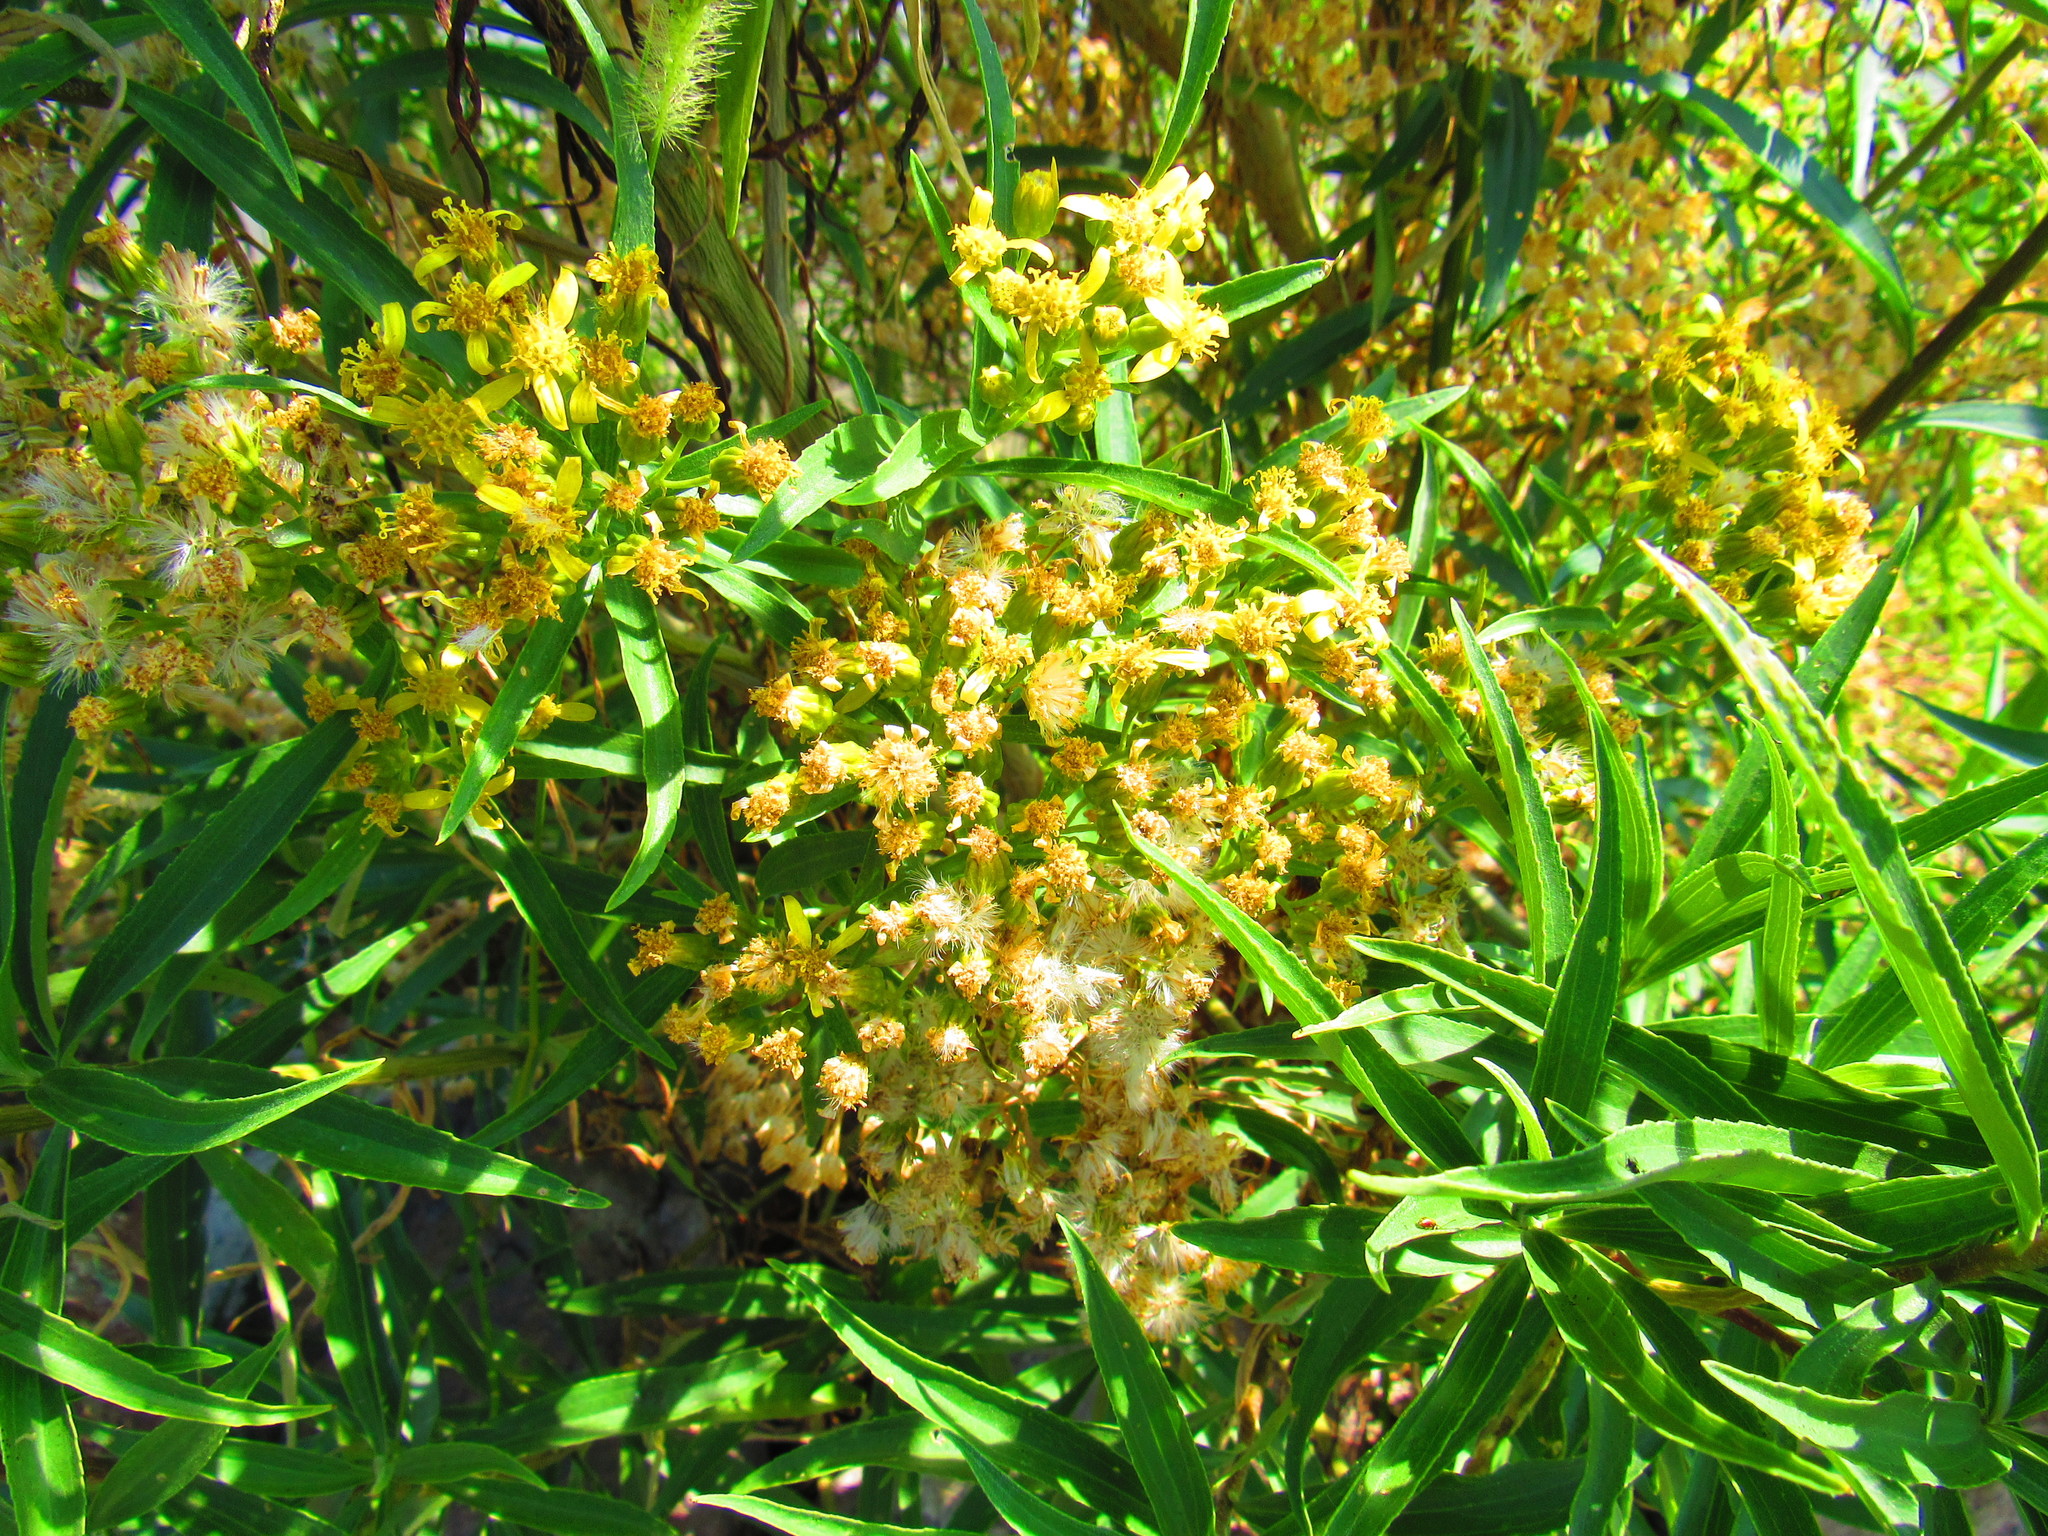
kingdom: Plantae
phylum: Tracheophyta
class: Magnoliopsida
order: Asterales
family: Asteraceae
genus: Barkleyanthus
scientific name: Barkleyanthus salicifolius
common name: Willow ragwort
